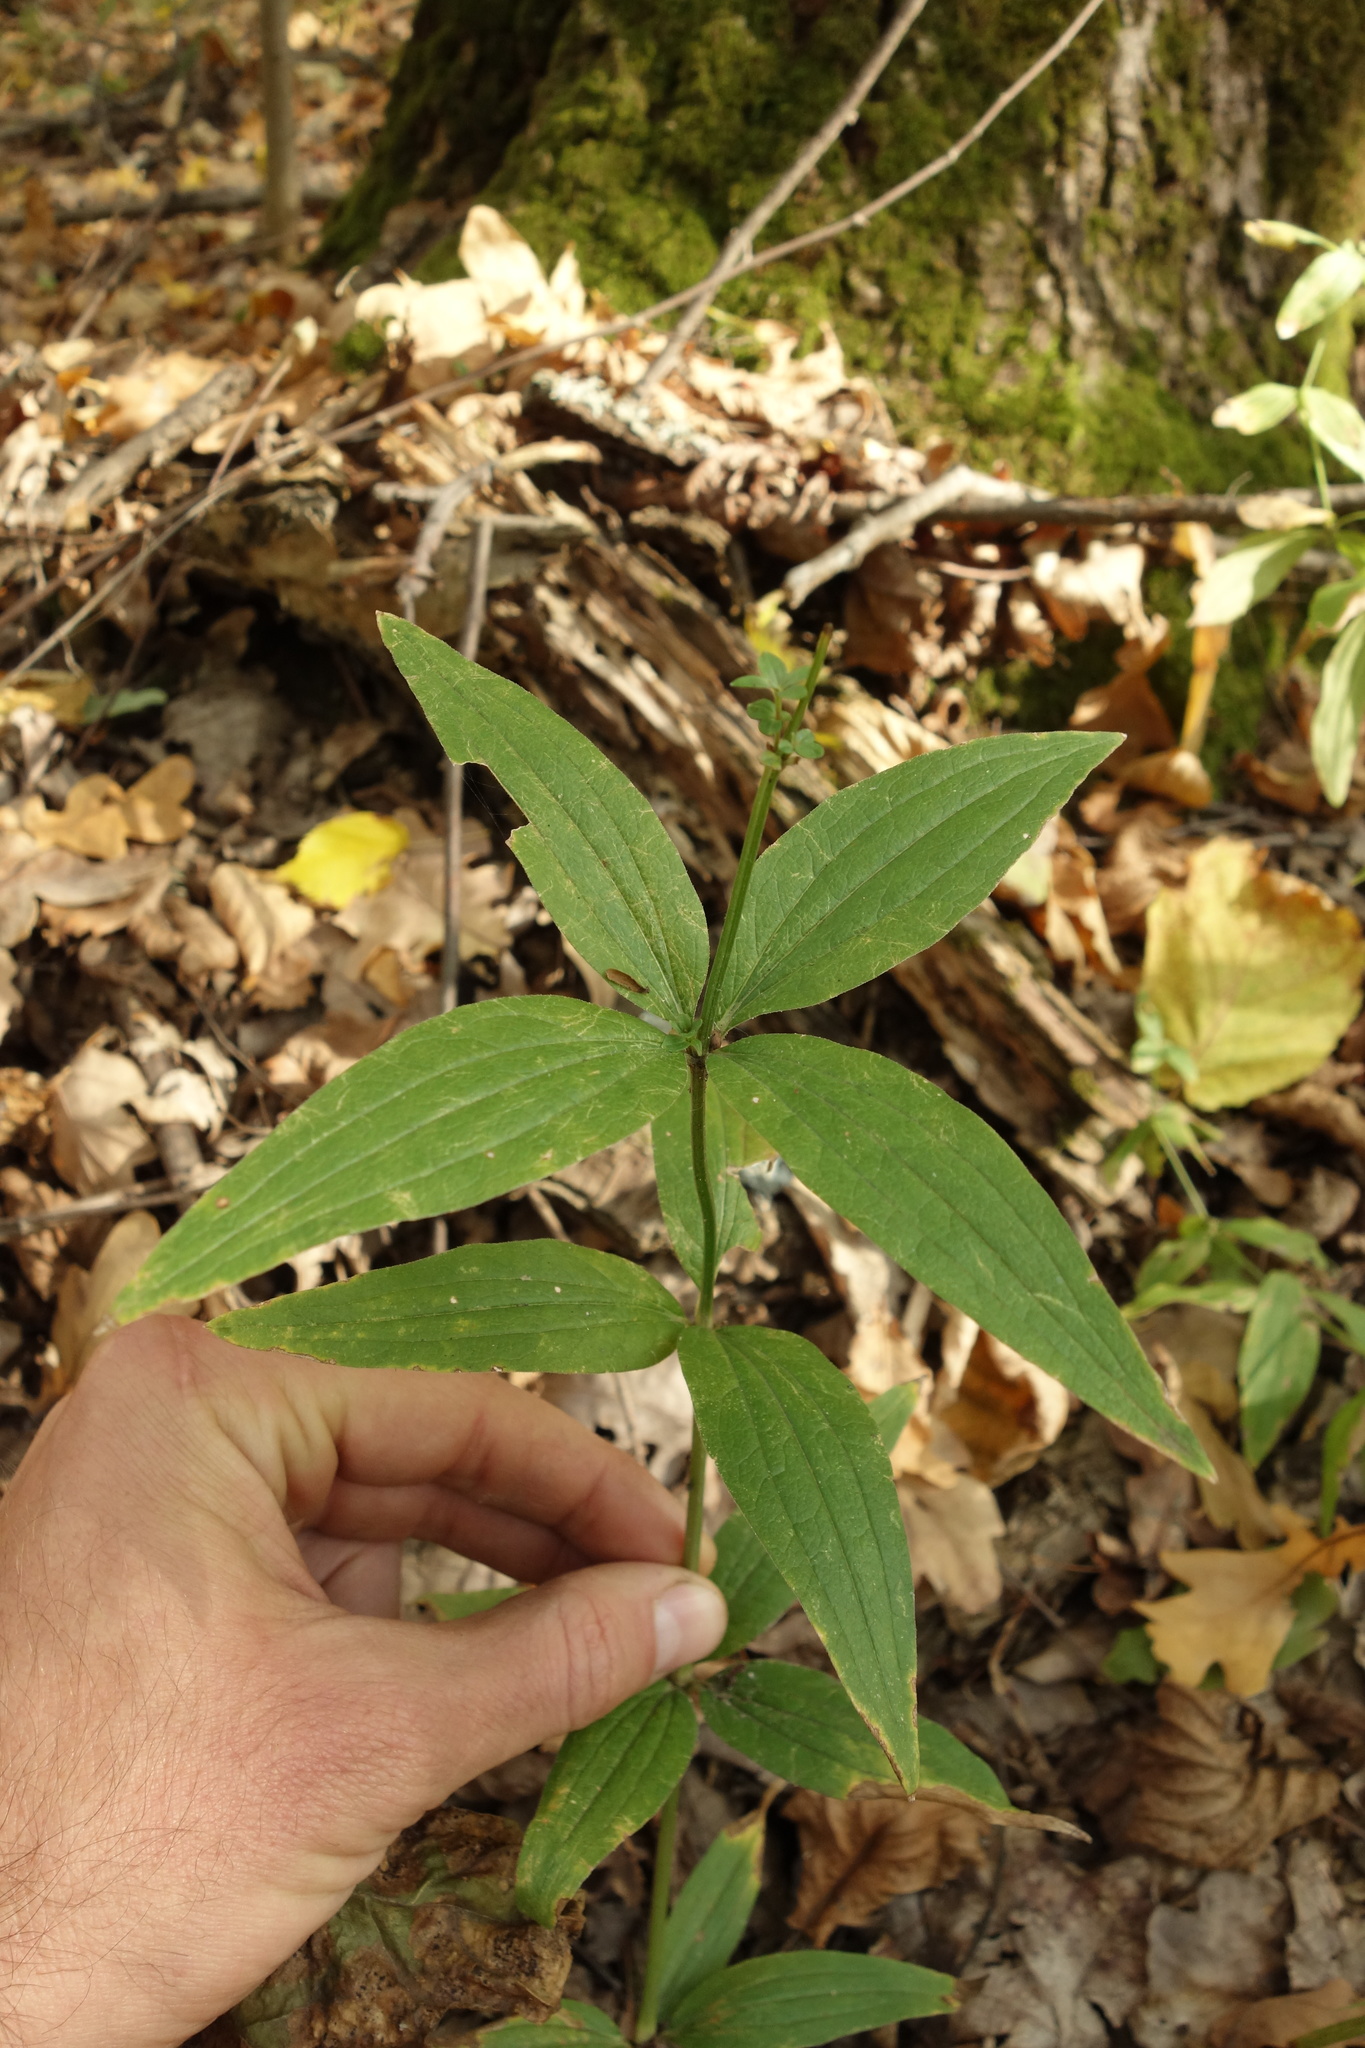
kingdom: Plantae
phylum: Tracheophyta
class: Magnoliopsida
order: Gentianales
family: Rubiaceae
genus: Galium
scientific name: Galium rubioides
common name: European bedstraw
